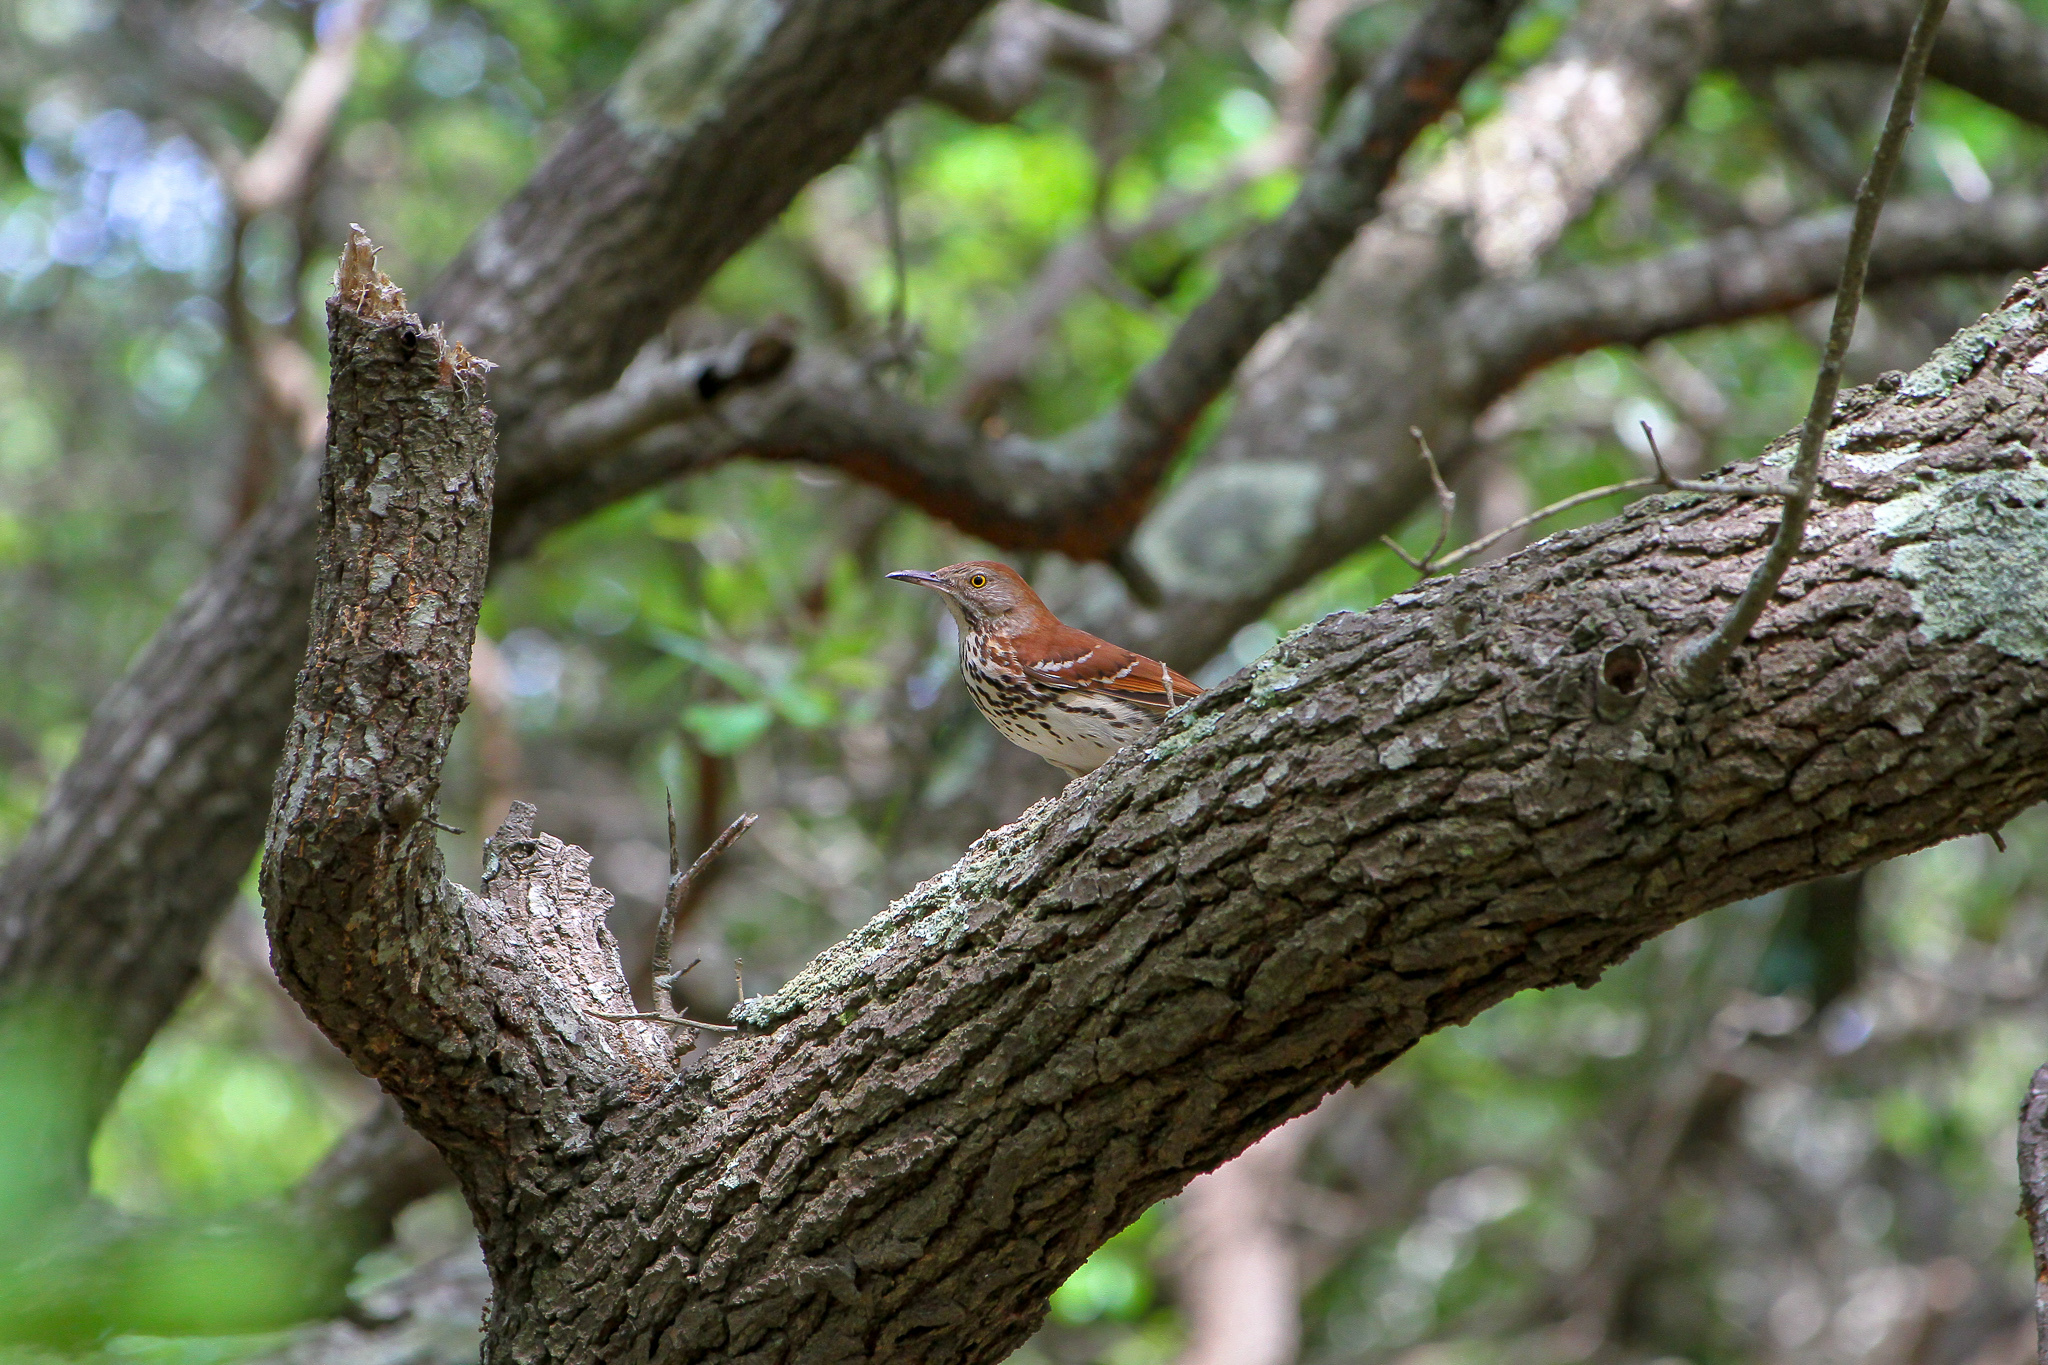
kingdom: Animalia
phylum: Chordata
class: Aves
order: Passeriformes
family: Mimidae
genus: Toxostoma
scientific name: Toxostoma rufum
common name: Brown thrasher
